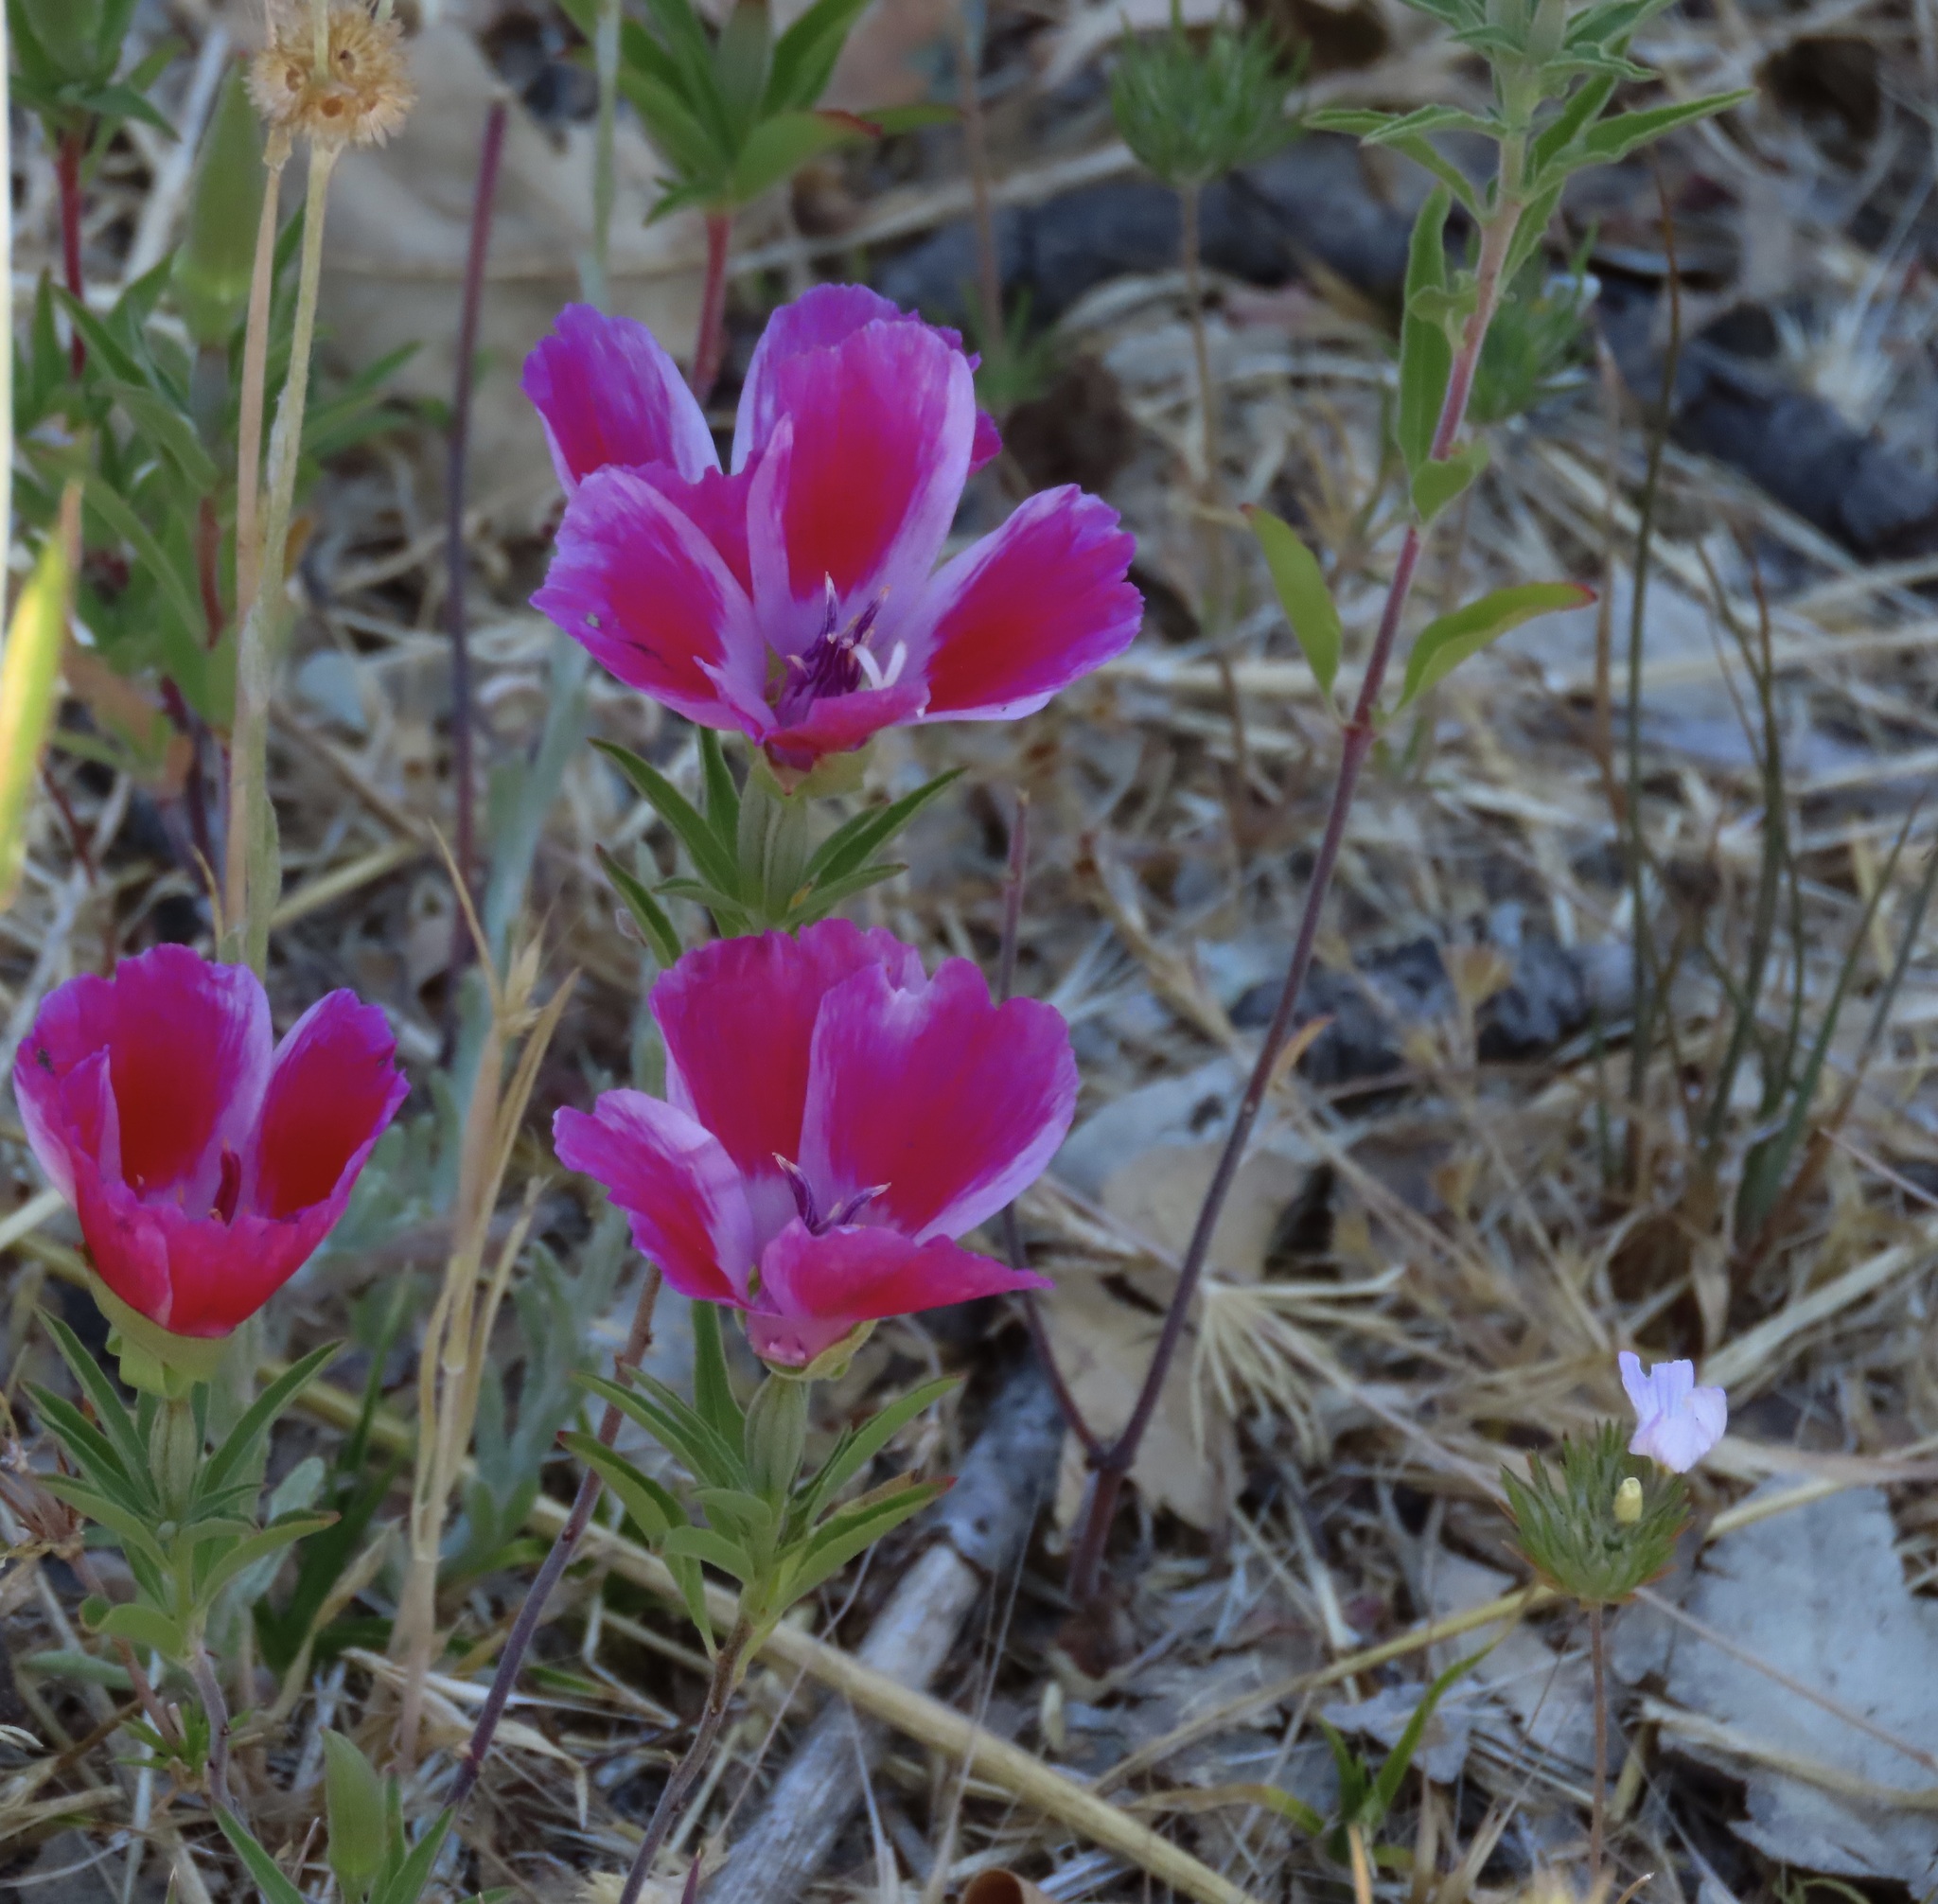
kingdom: Plantae
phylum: Tracheophyta
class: Magnoliopsida
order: Myrtales
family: Onagraceae
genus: Clarkia
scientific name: Clarkia amoena
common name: Godetia
